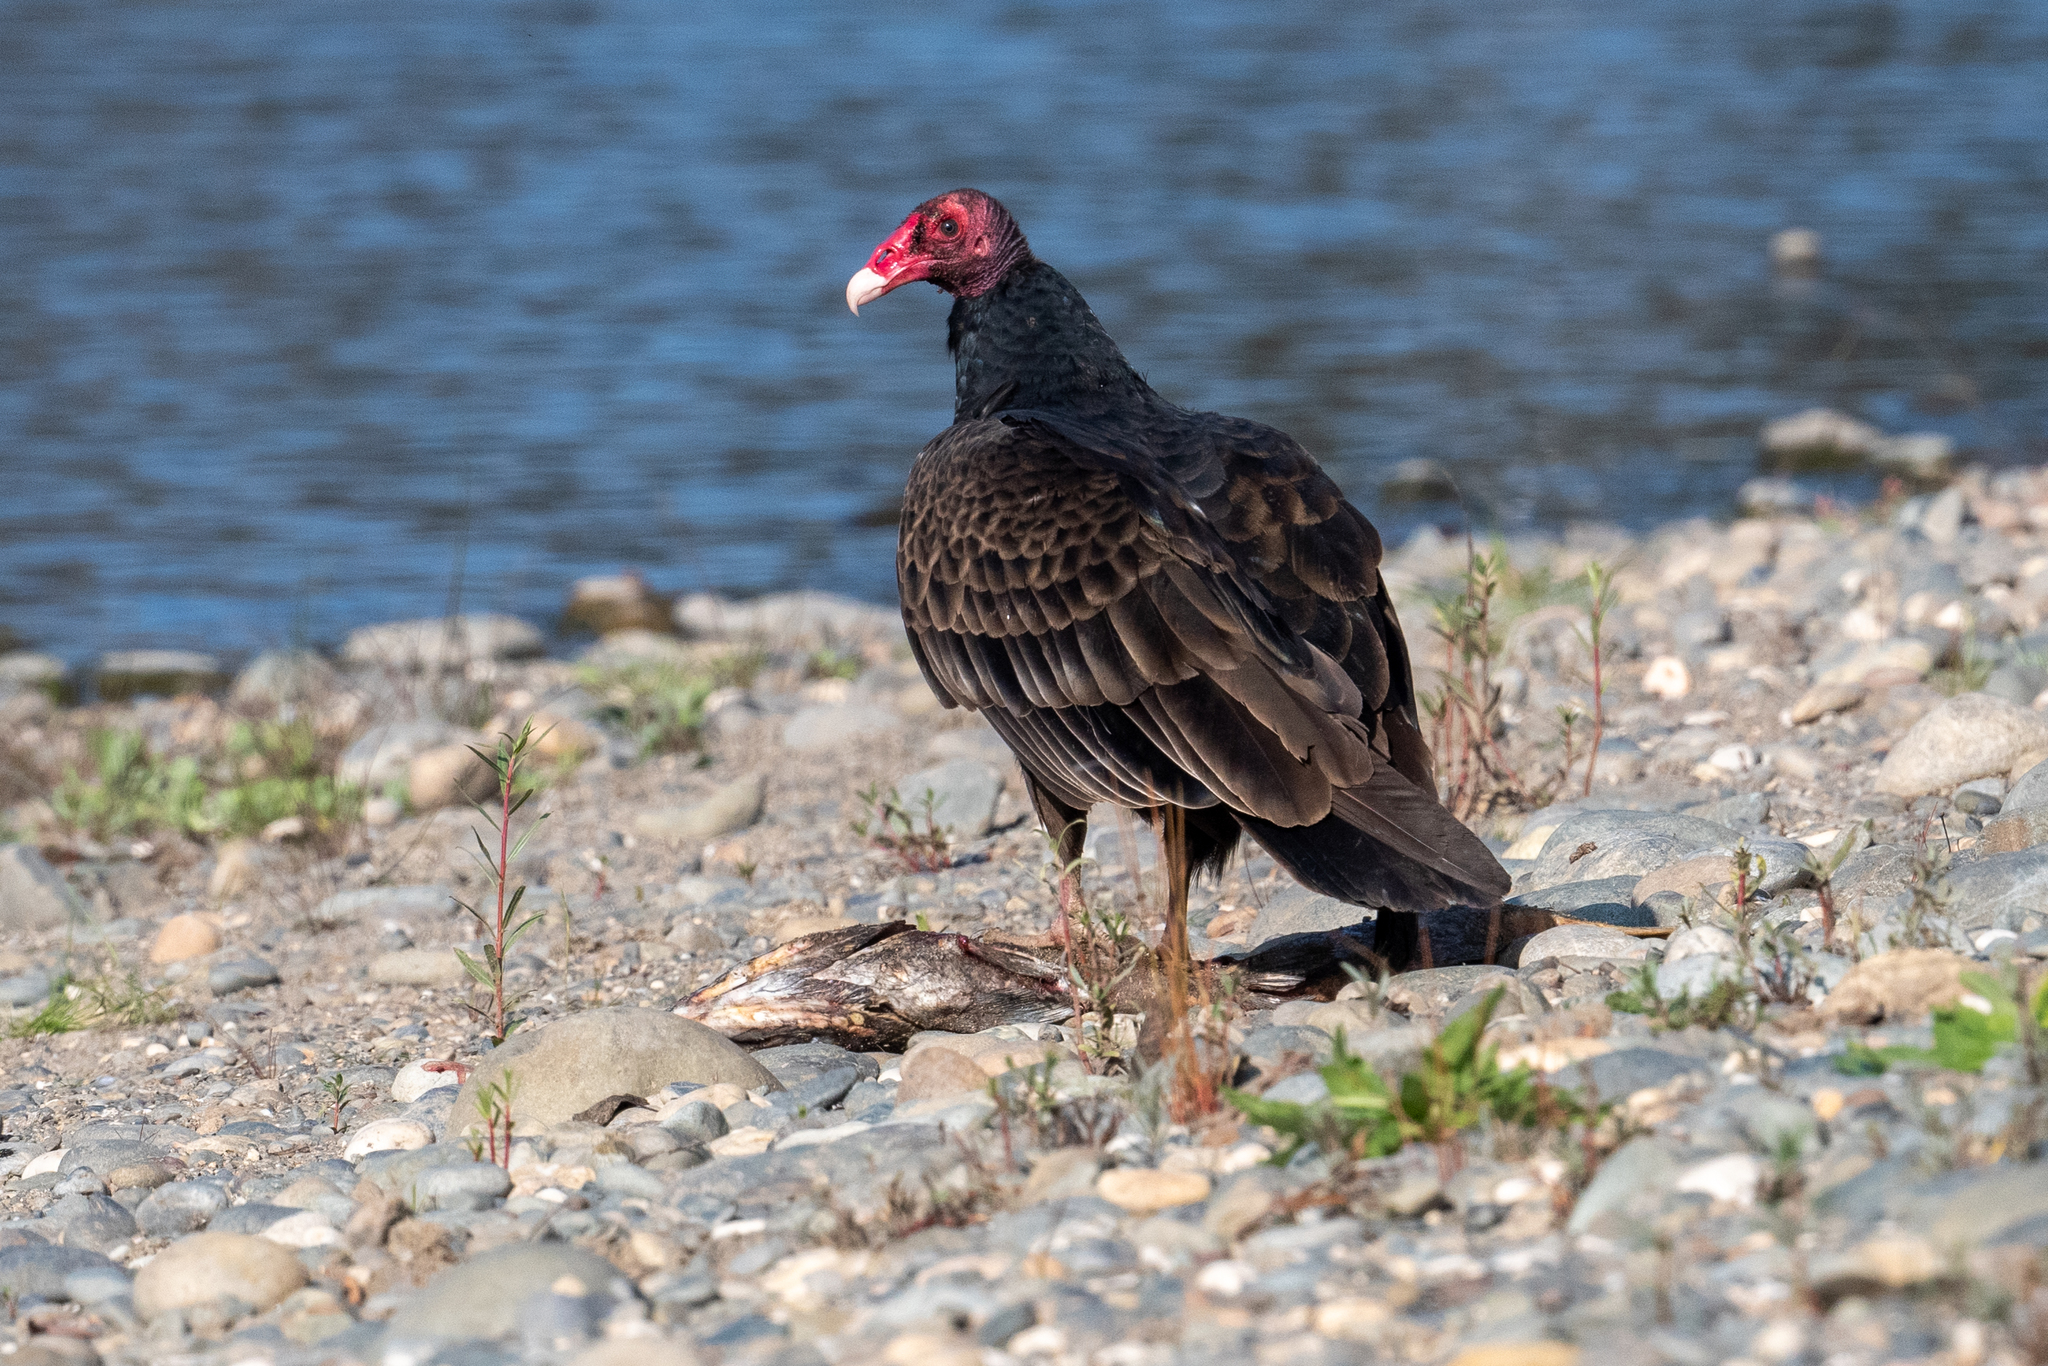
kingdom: Animalia
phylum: Chordata
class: Aves
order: Accipitriformes
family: Cathartidae
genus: Cathartes
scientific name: Cathartes aura
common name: Turkey vulture
